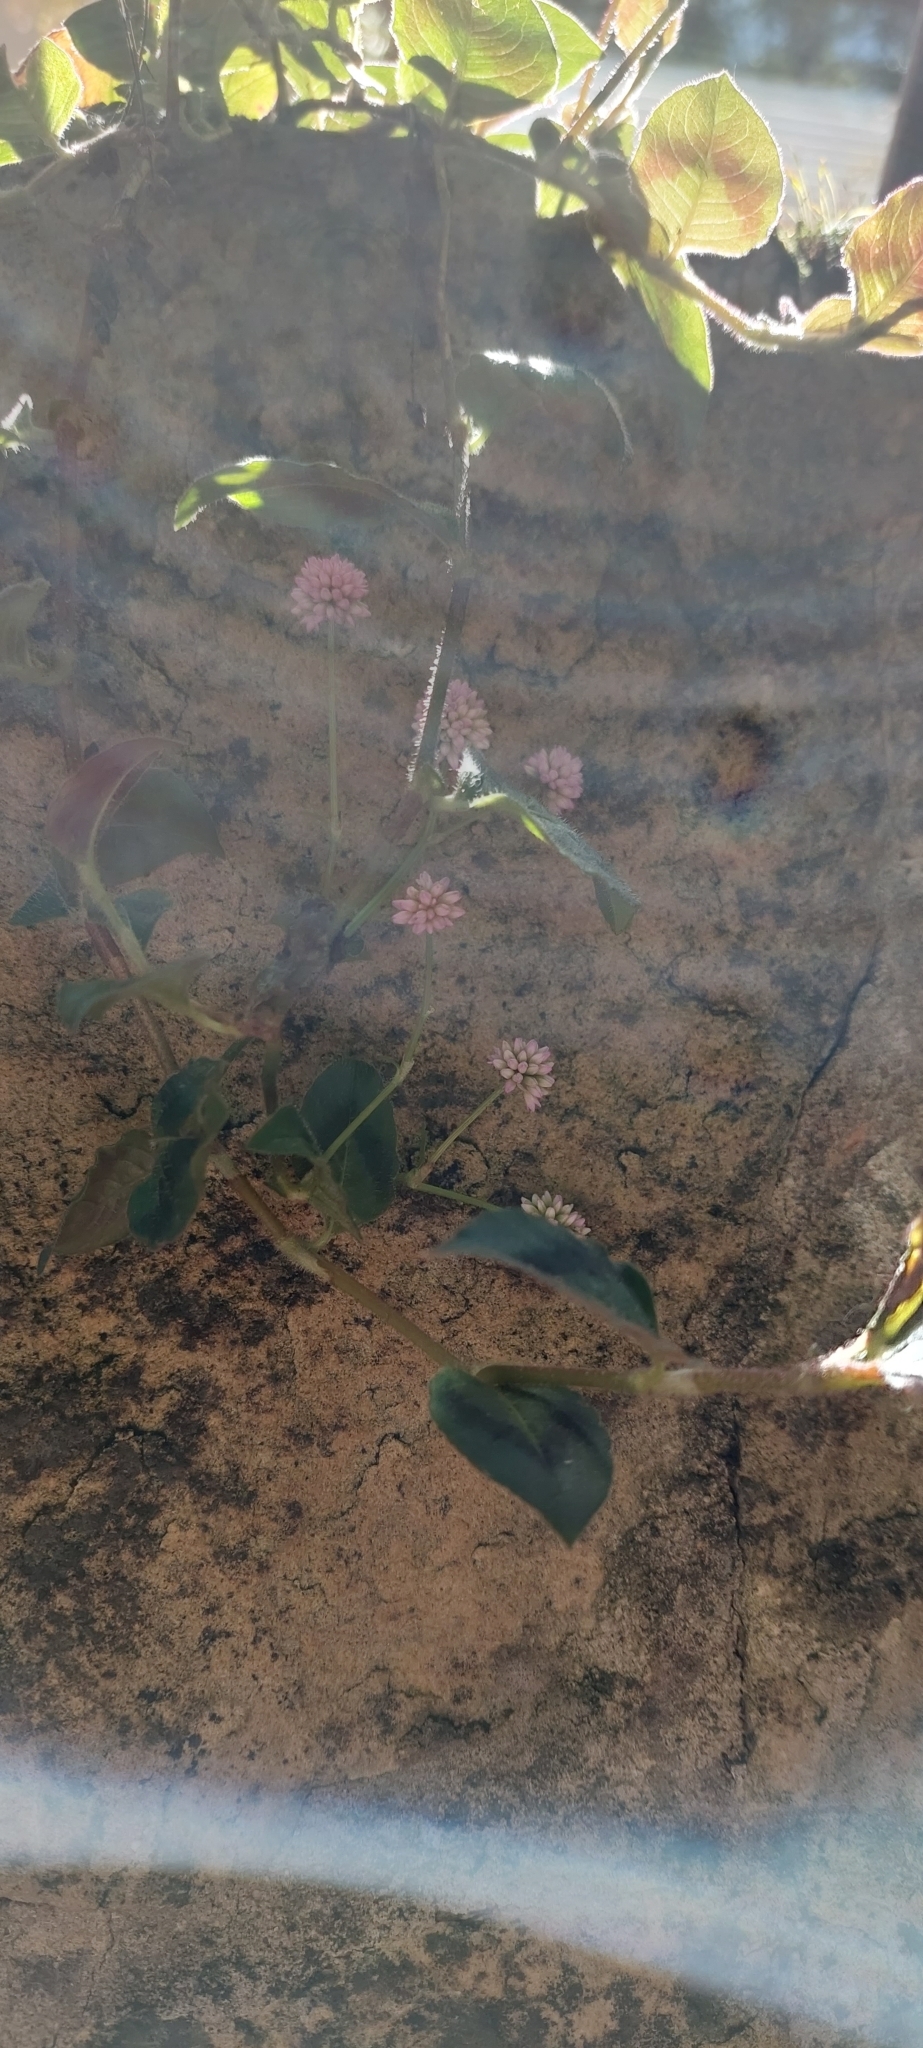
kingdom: Plantae
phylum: Tracheophyta
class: Magnoliopsida
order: Caryophyllales
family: Polygonaceae
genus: Persicaria
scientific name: Persicaria capitata
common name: Pinkhead smartweed
